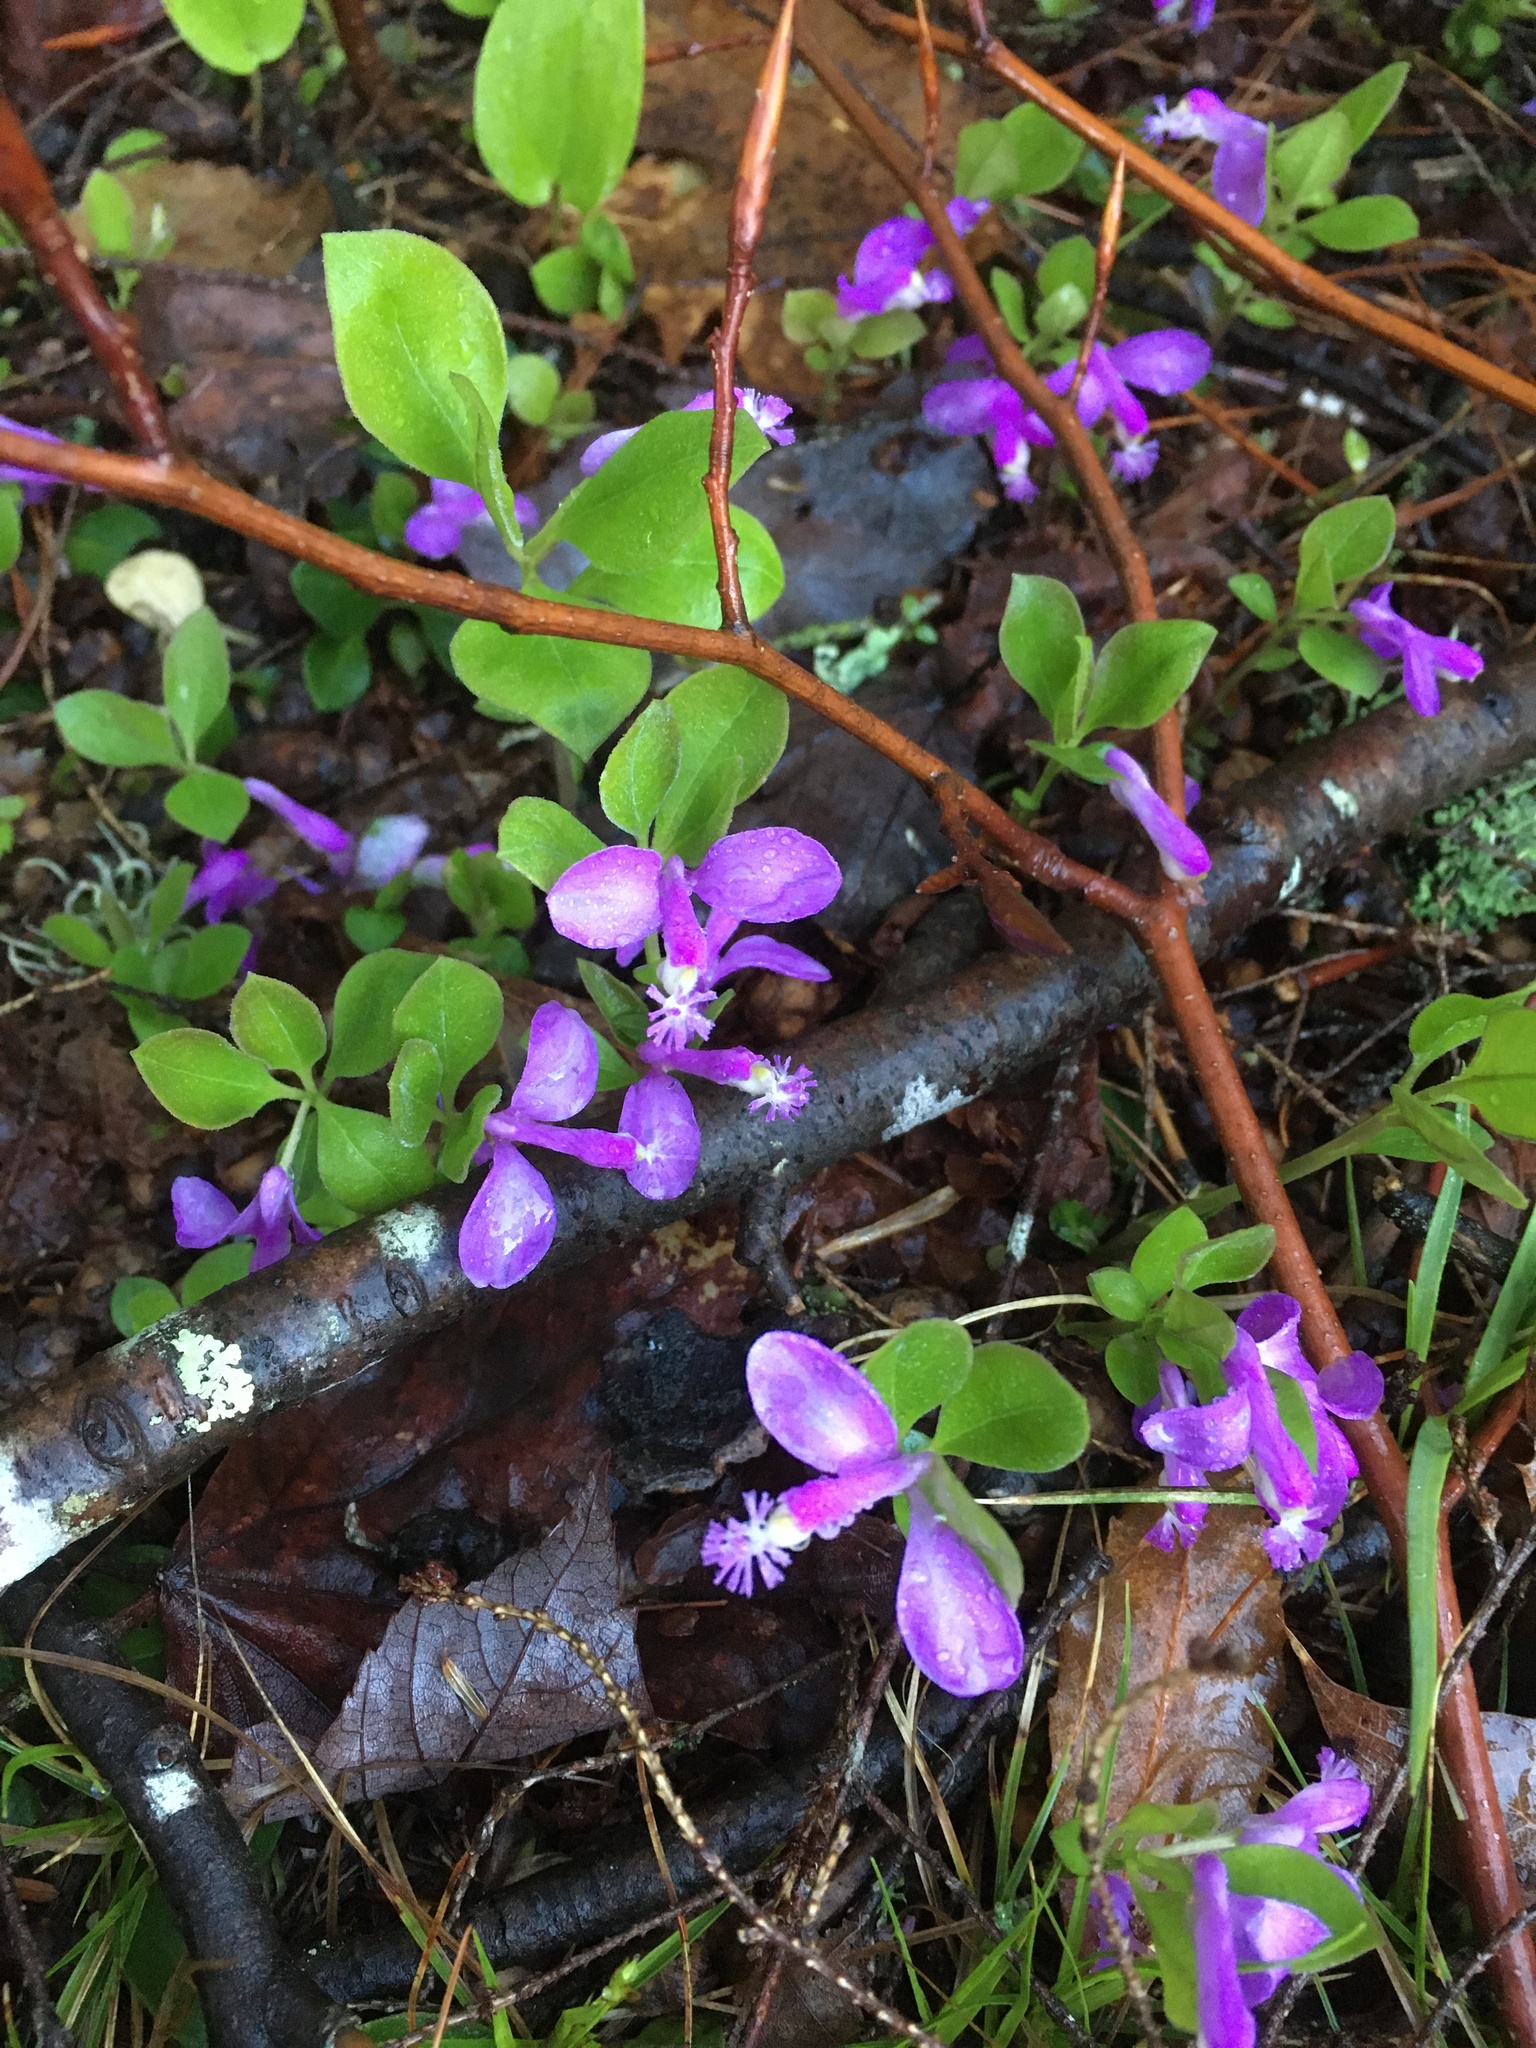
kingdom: Plantae
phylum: Tracheophyta
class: Magnoliopsida
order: Fabales
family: Polygalaceae
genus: Polygaloides
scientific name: Polygaloides paucifolia
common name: Bird-on-the-wing
